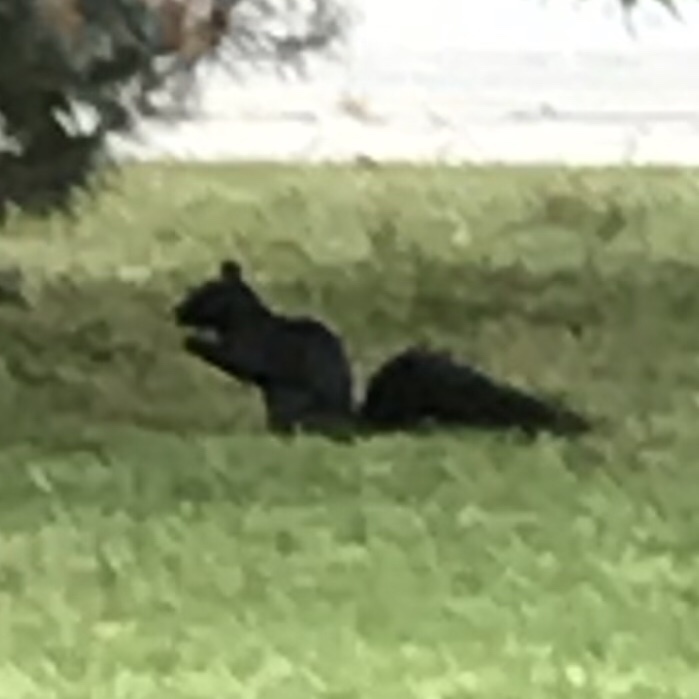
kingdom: Animalia
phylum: Chordata
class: Mammalia
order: Rodentia
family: Sciuridae
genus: Sciurus
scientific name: Sciurus carolinensis
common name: Eastern gray squirrel
